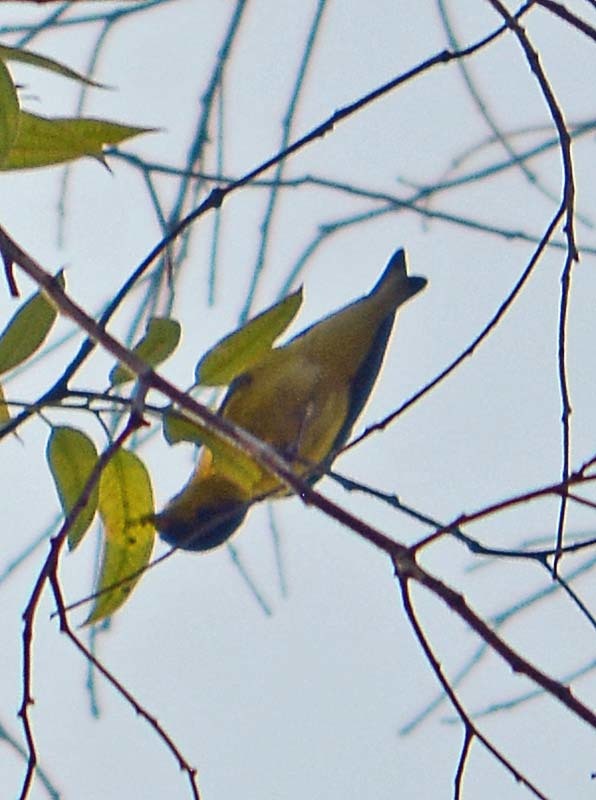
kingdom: Animalia
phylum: Chordata
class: Aves
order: Passeriformes
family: Fringillidae
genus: Spinus
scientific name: Spinus psaltria
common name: Lesser goldfinch
